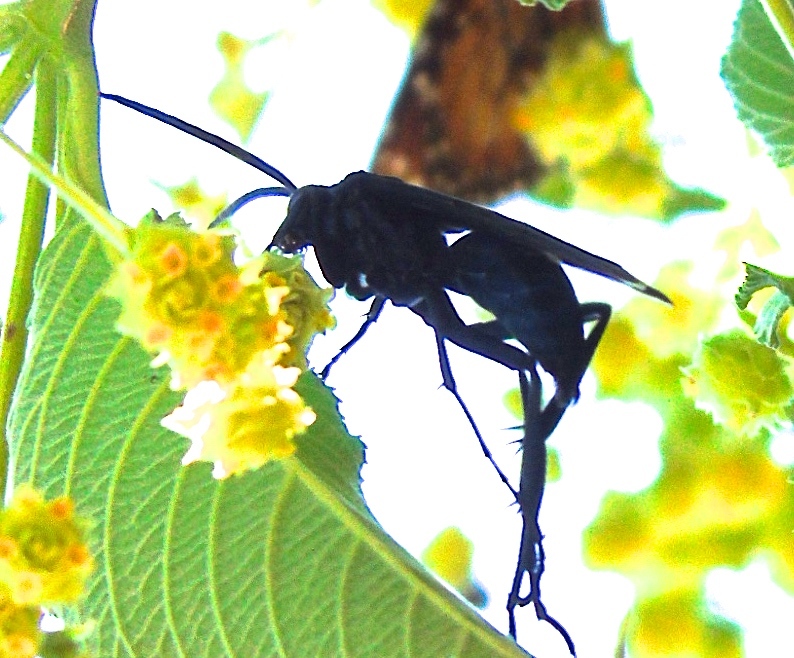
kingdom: Animalia
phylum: Arthropoda
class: Insecta
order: Hymenoptera
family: Pompilidae
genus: Pepsis
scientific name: Pepsis mexicana
